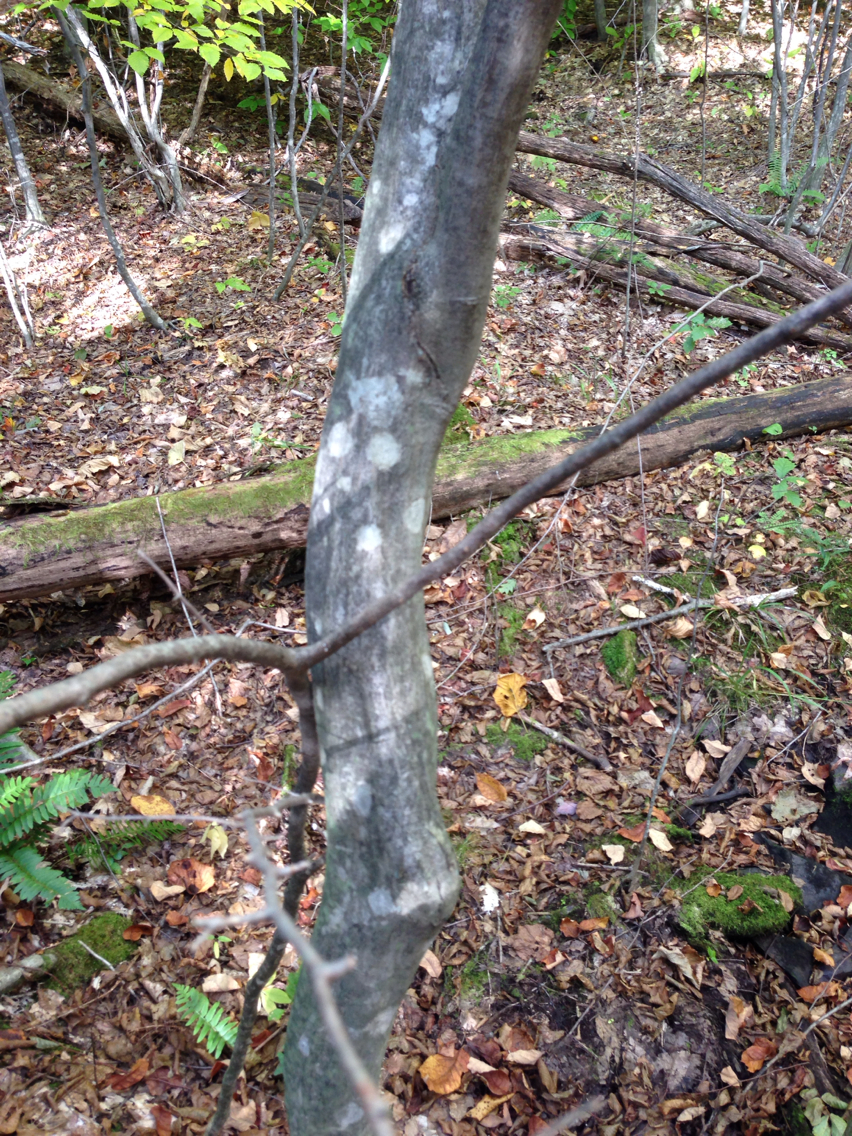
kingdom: Plantae
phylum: Tracheophyta
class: Magnoliopsida
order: Fagales
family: Betulaceae
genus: Carpinus
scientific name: Carpinus caroliniana
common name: American hornbeam
